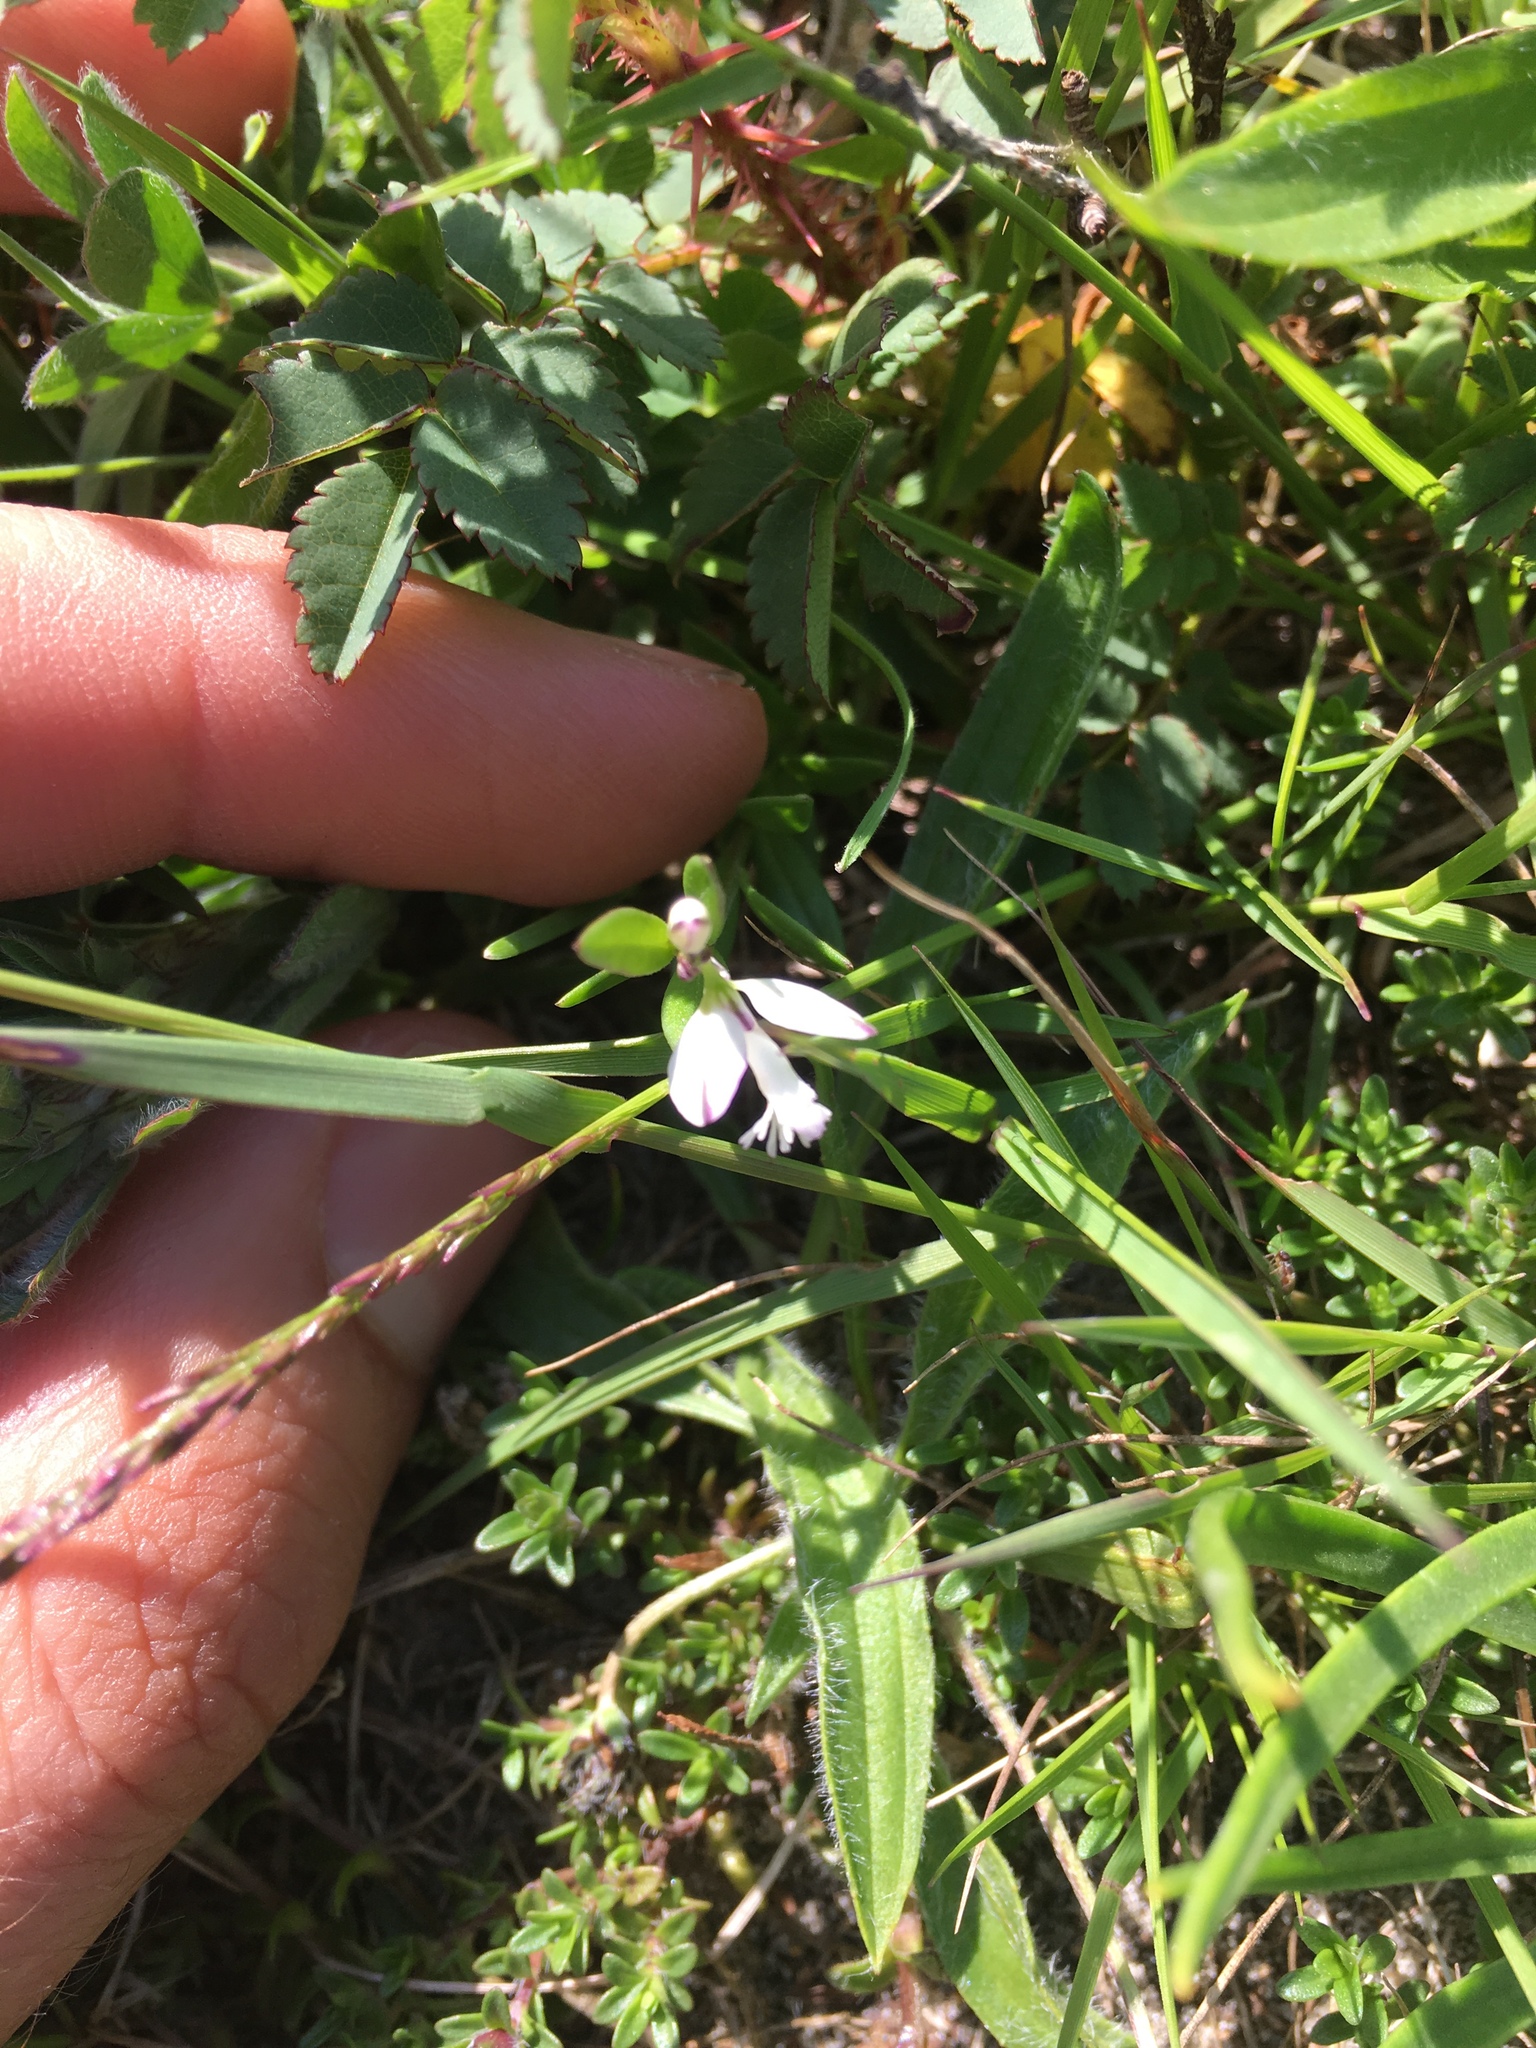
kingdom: Plantae
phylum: Tracheophyta
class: Magnoliopsida
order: Fabales
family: Polygalaceae
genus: Polygala
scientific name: Polygala vulgaris
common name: Common milkwort
